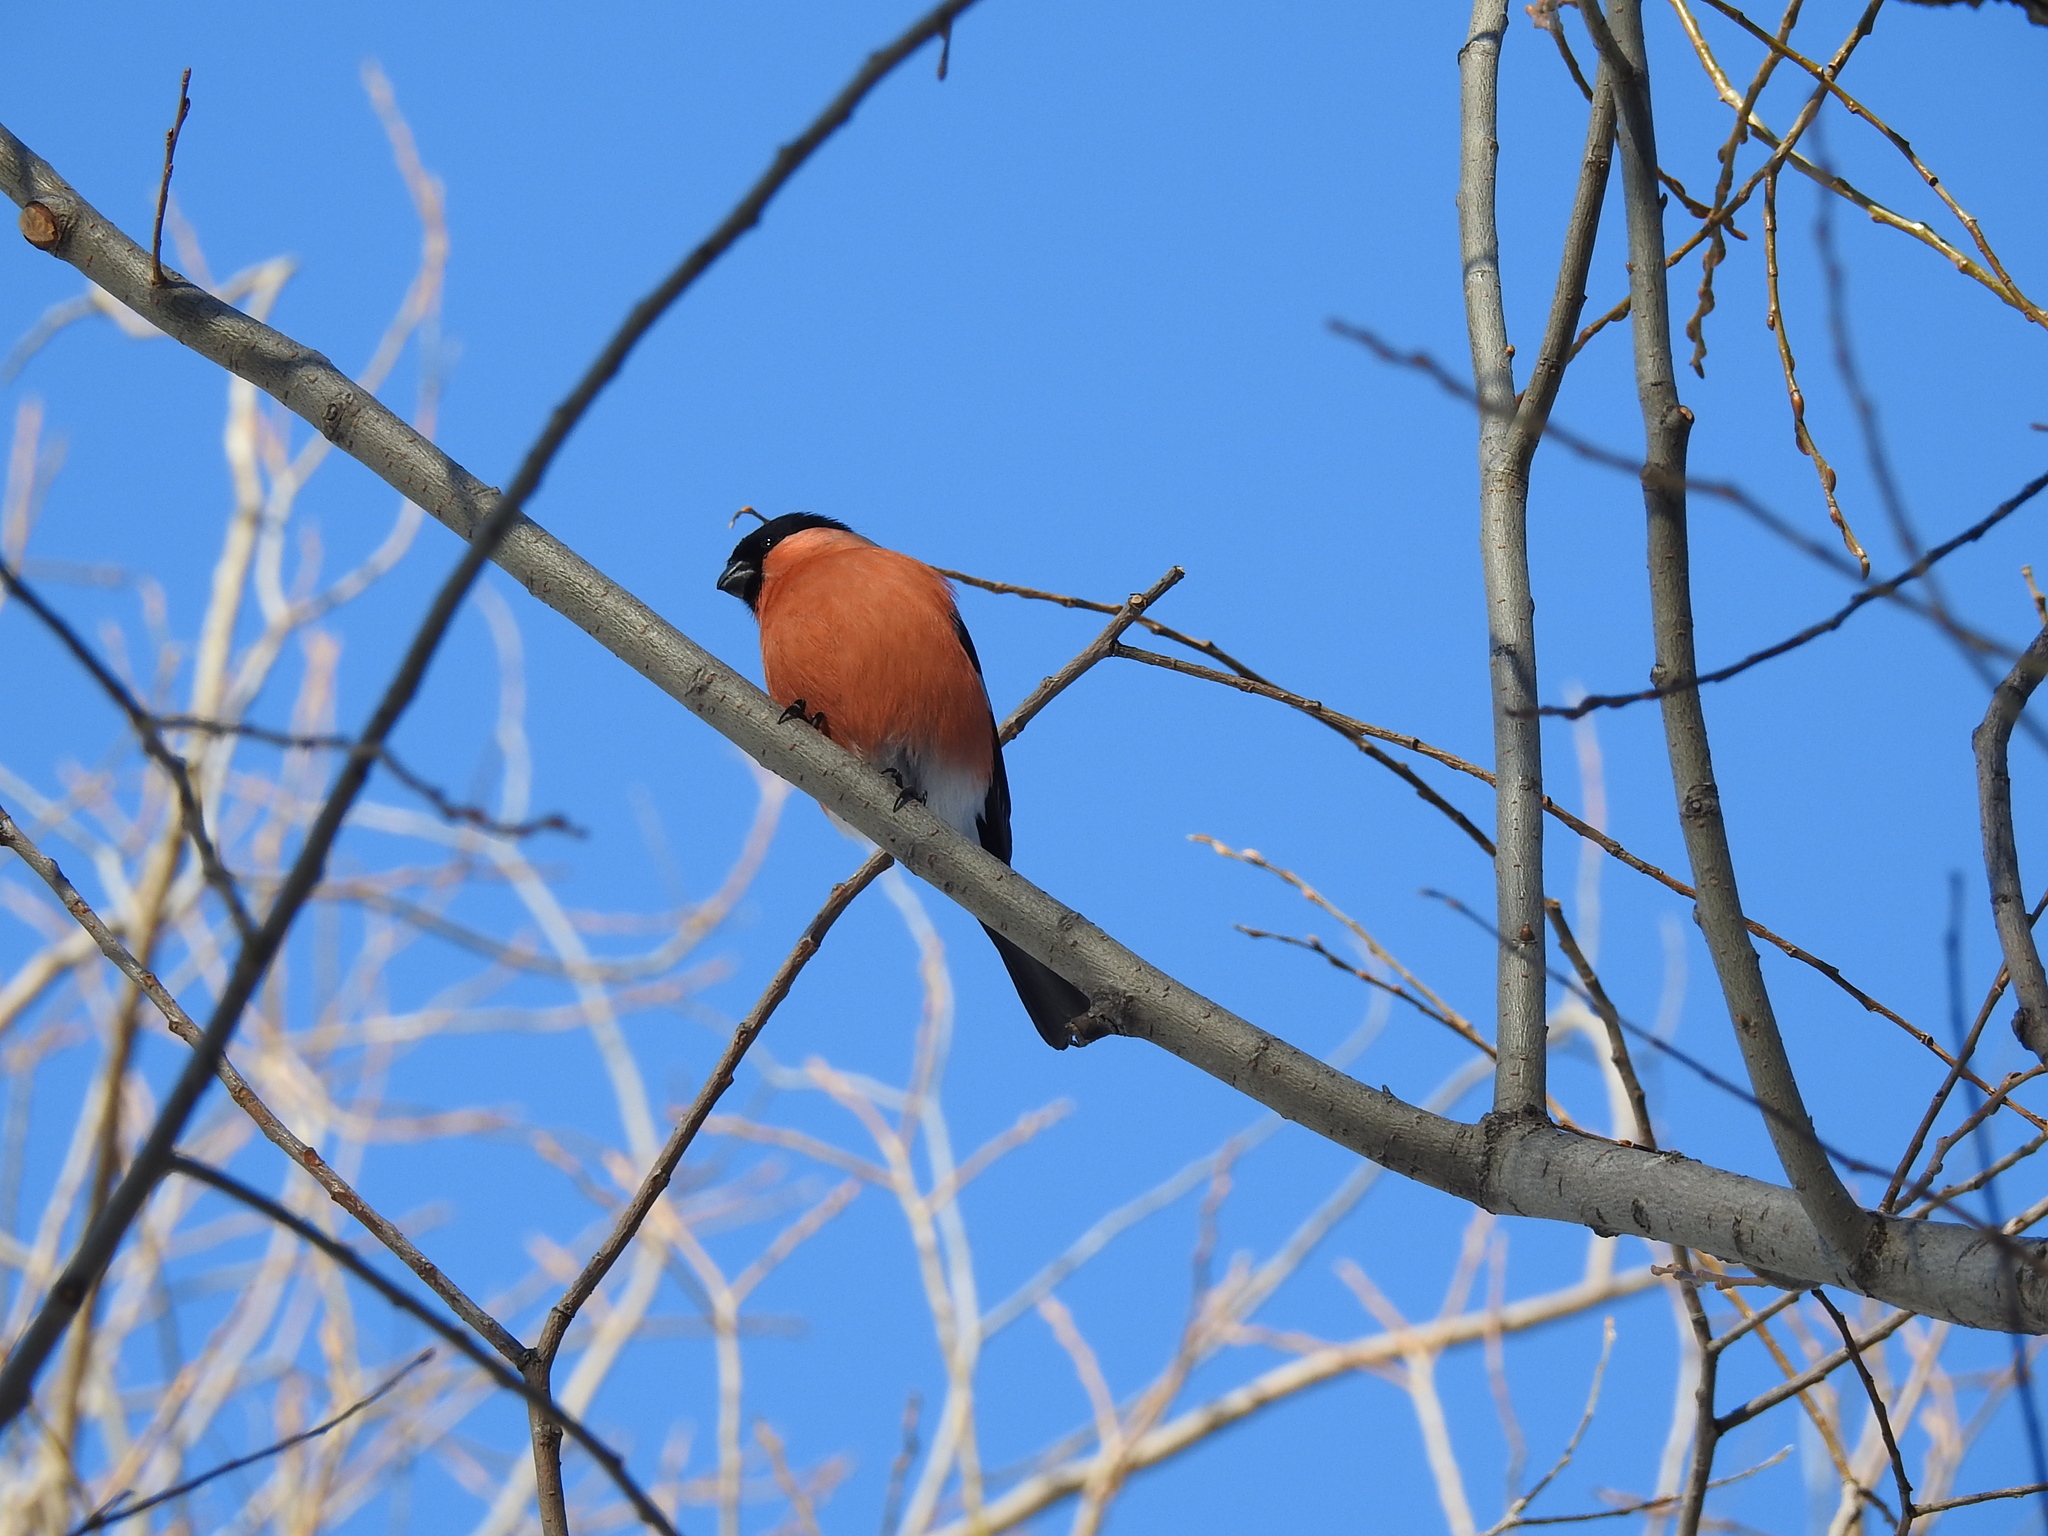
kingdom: Animalia
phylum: Chordata
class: Aves
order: Passeriformes
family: Fringillidae
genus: Pyrrhula
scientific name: Pyrrhula pyrrhula
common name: Eurasian bullfinch
